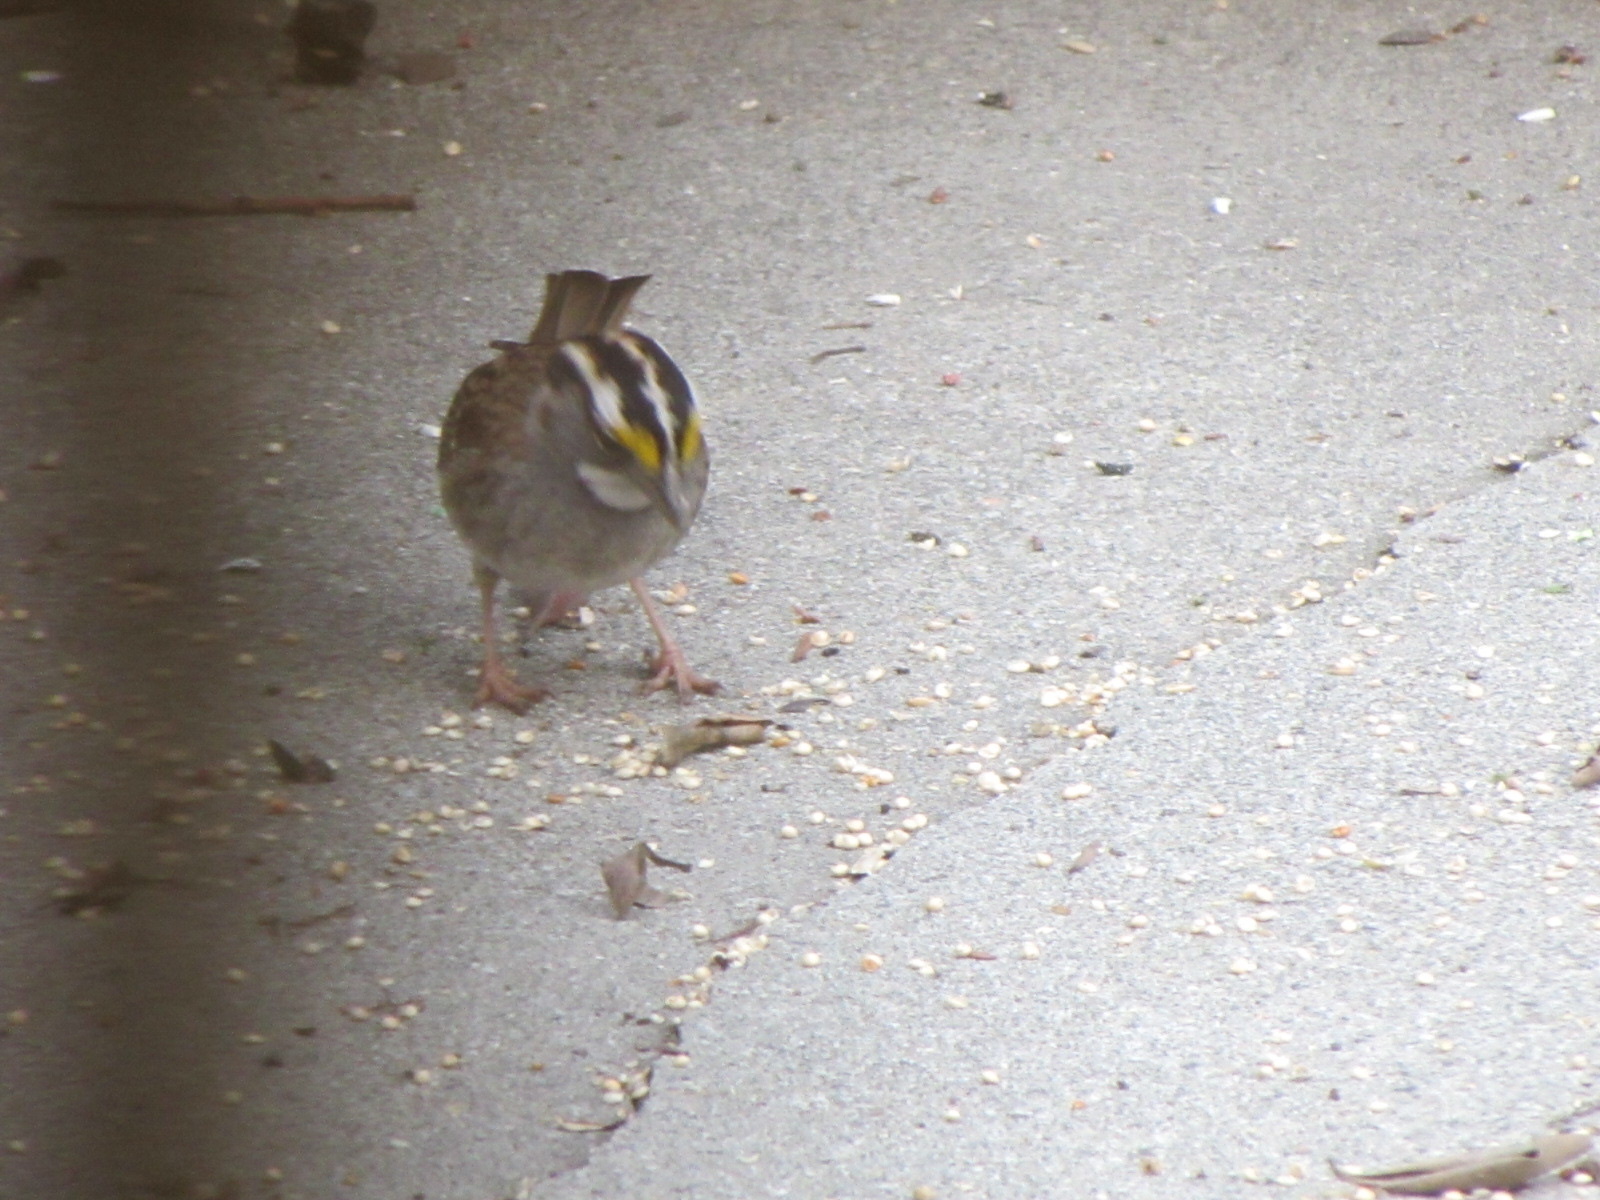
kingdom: Animalia
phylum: Chordata
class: Aves
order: Passeriformes
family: Passerellidae
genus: Zonotrichia
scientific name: Zonotrichia albicollis
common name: White-throated sparrow
